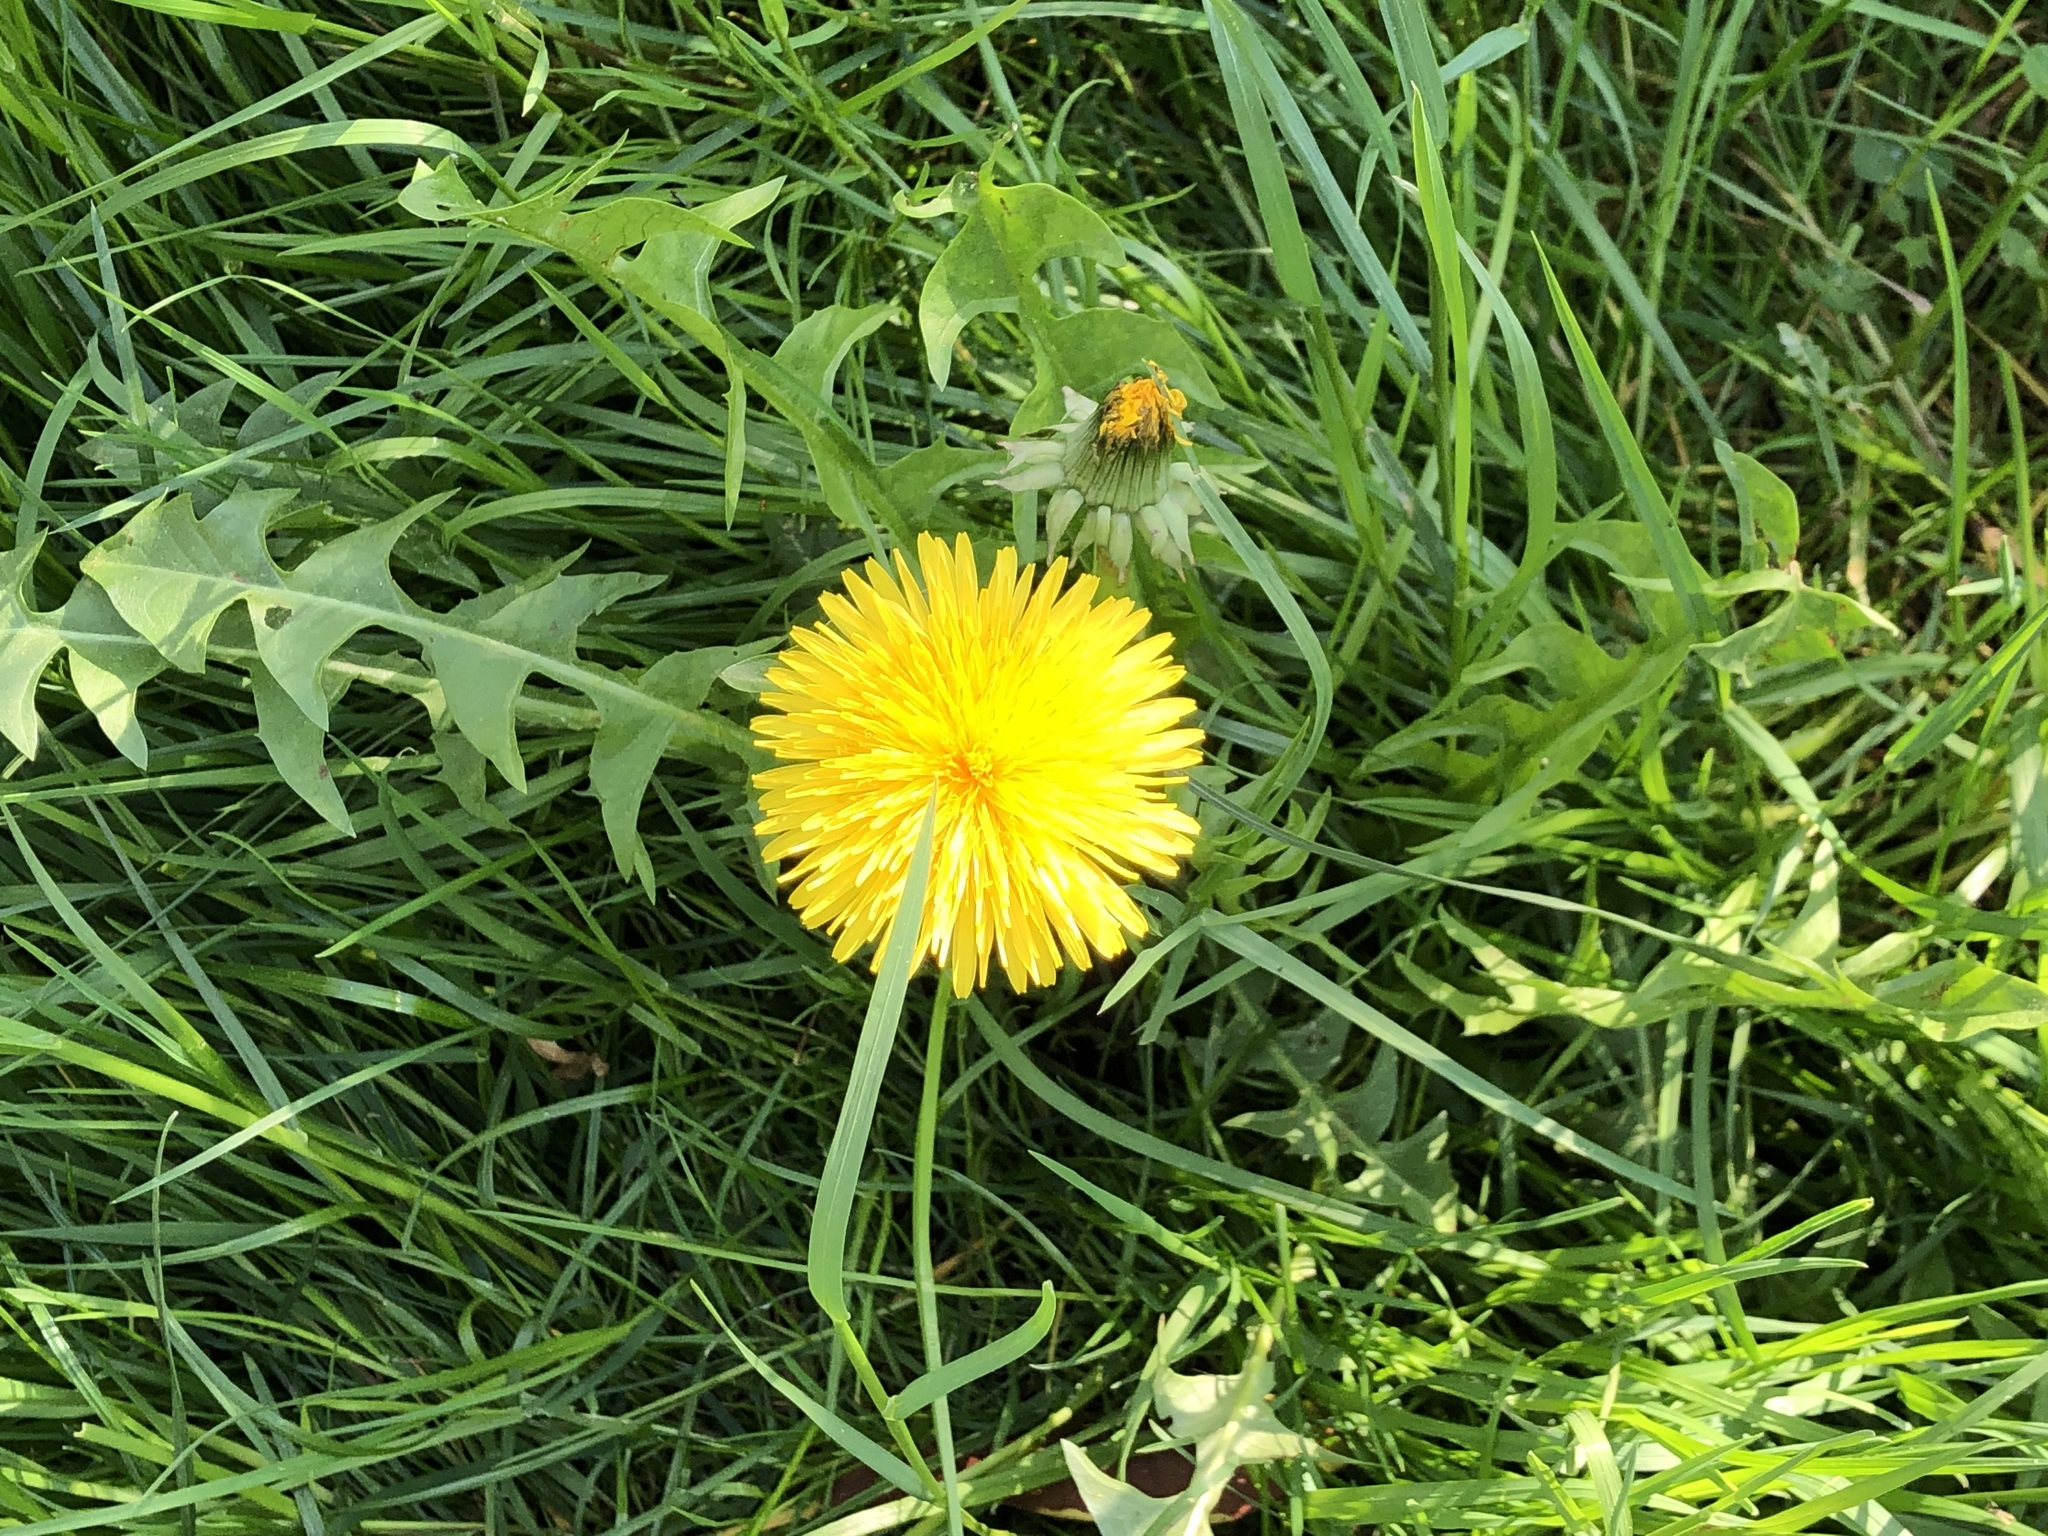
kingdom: Plantae
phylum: Tracheophyta
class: Magnoliopsida
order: Asterales
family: Asteraceae
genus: Taraxacum
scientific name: Taraxacum officinale
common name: Common dandelion
